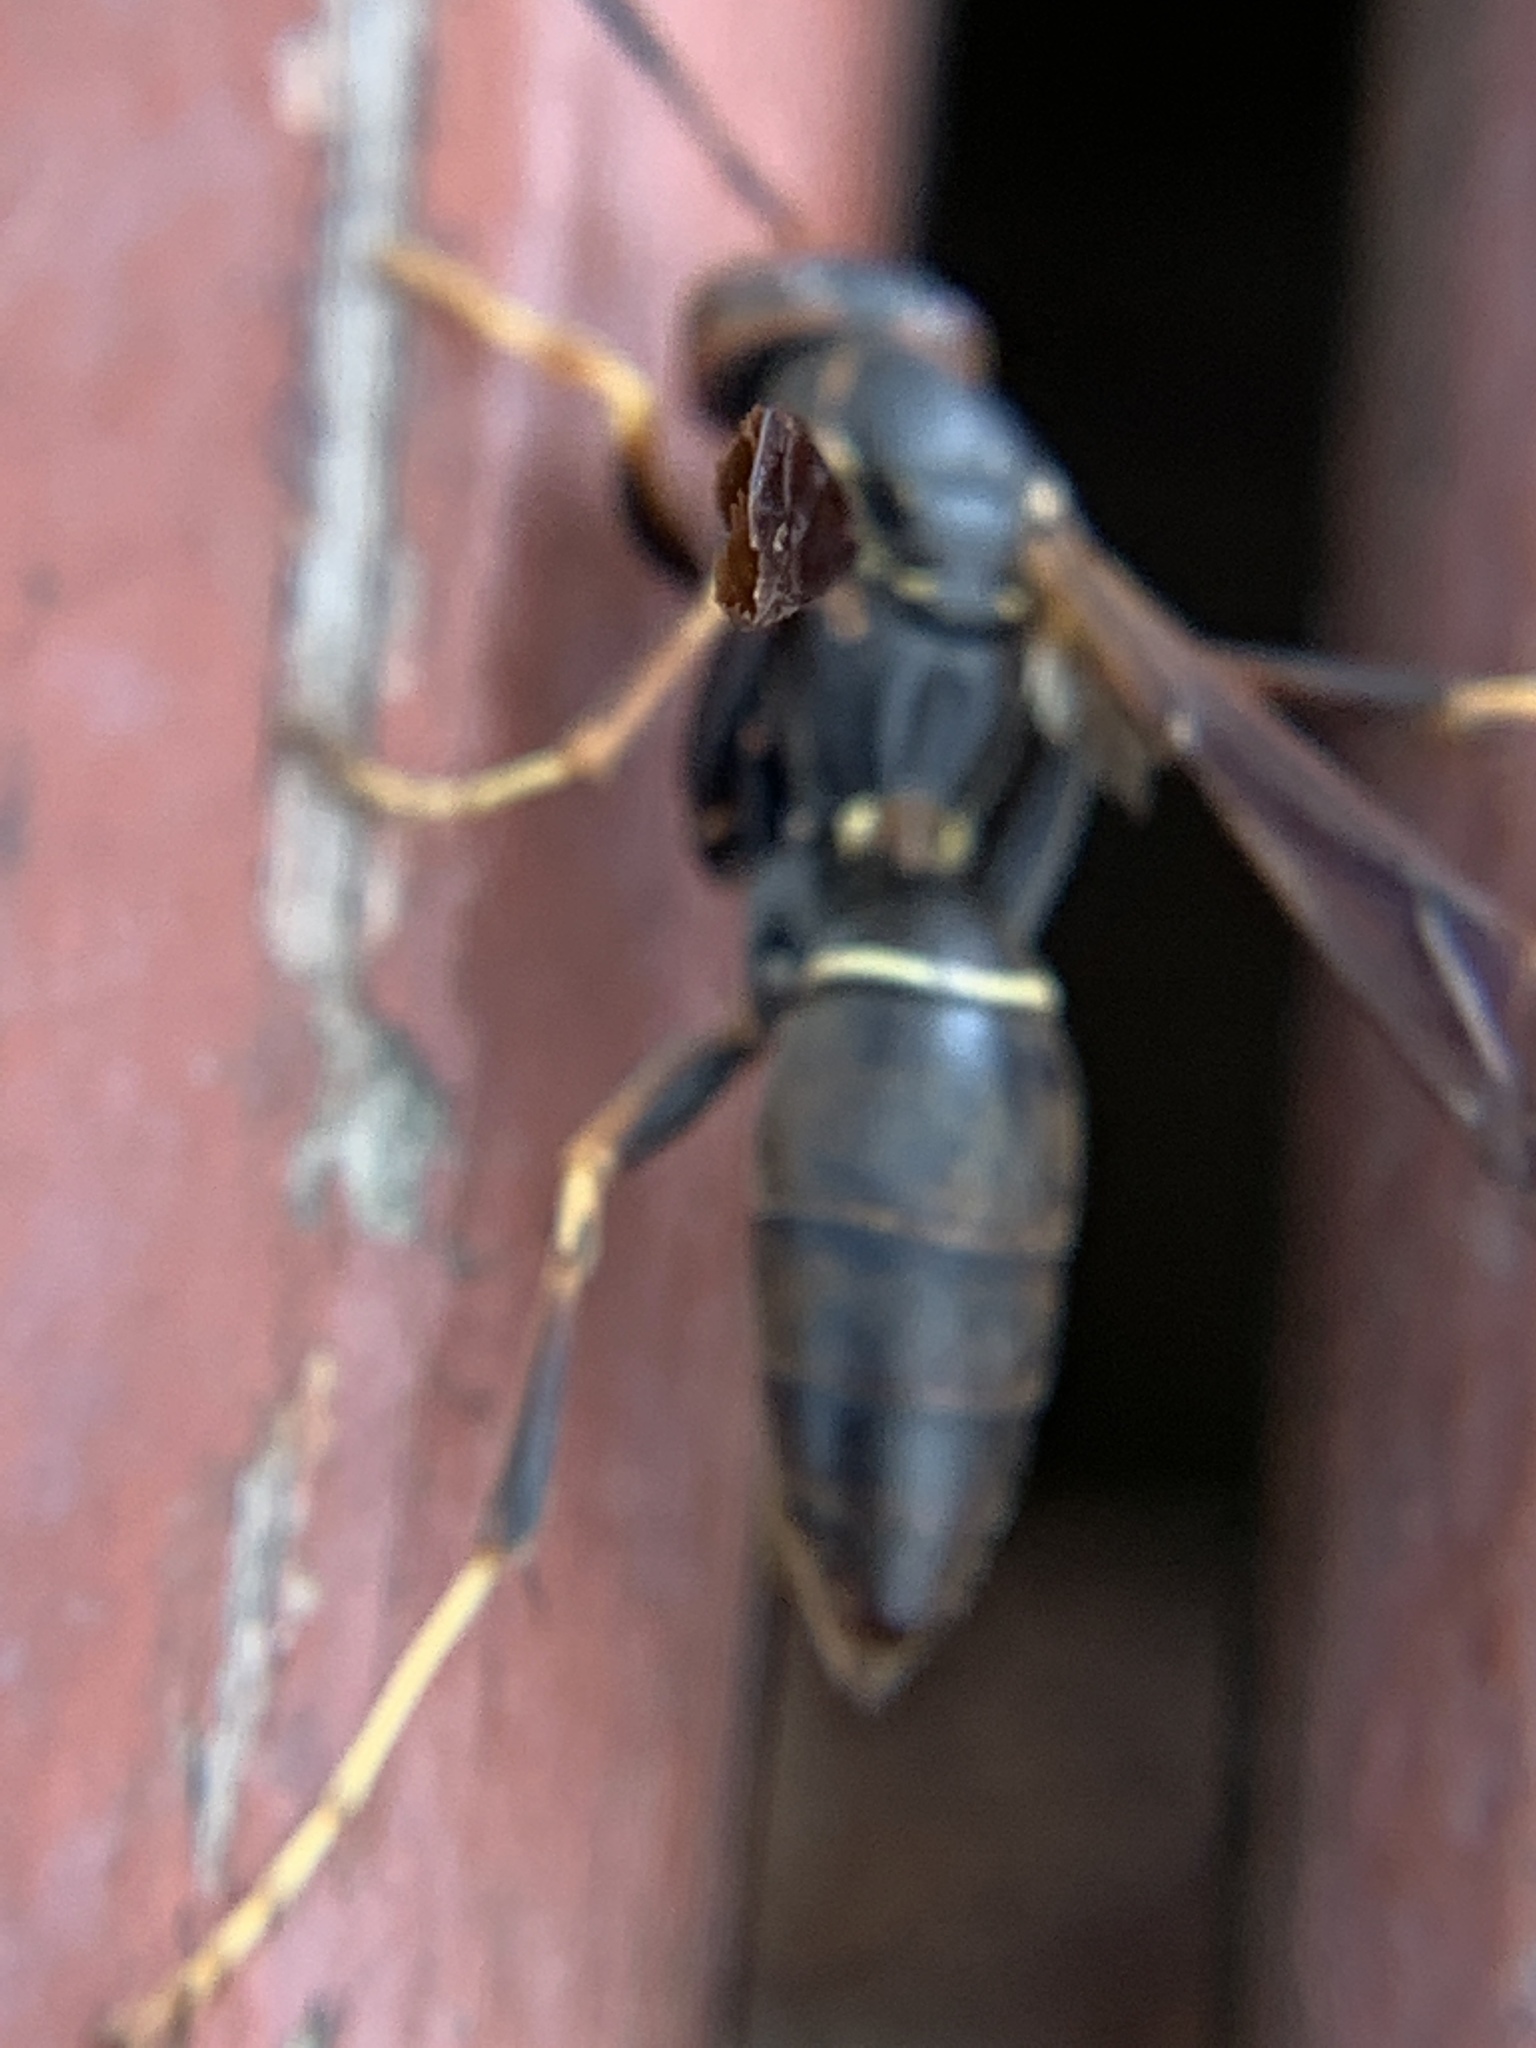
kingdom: Animalia
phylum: Arthropoda
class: Insecta
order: Hymenoptera
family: Eumenidae
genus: Polistes
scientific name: Polistes fuscatus
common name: Dark paper wasp
